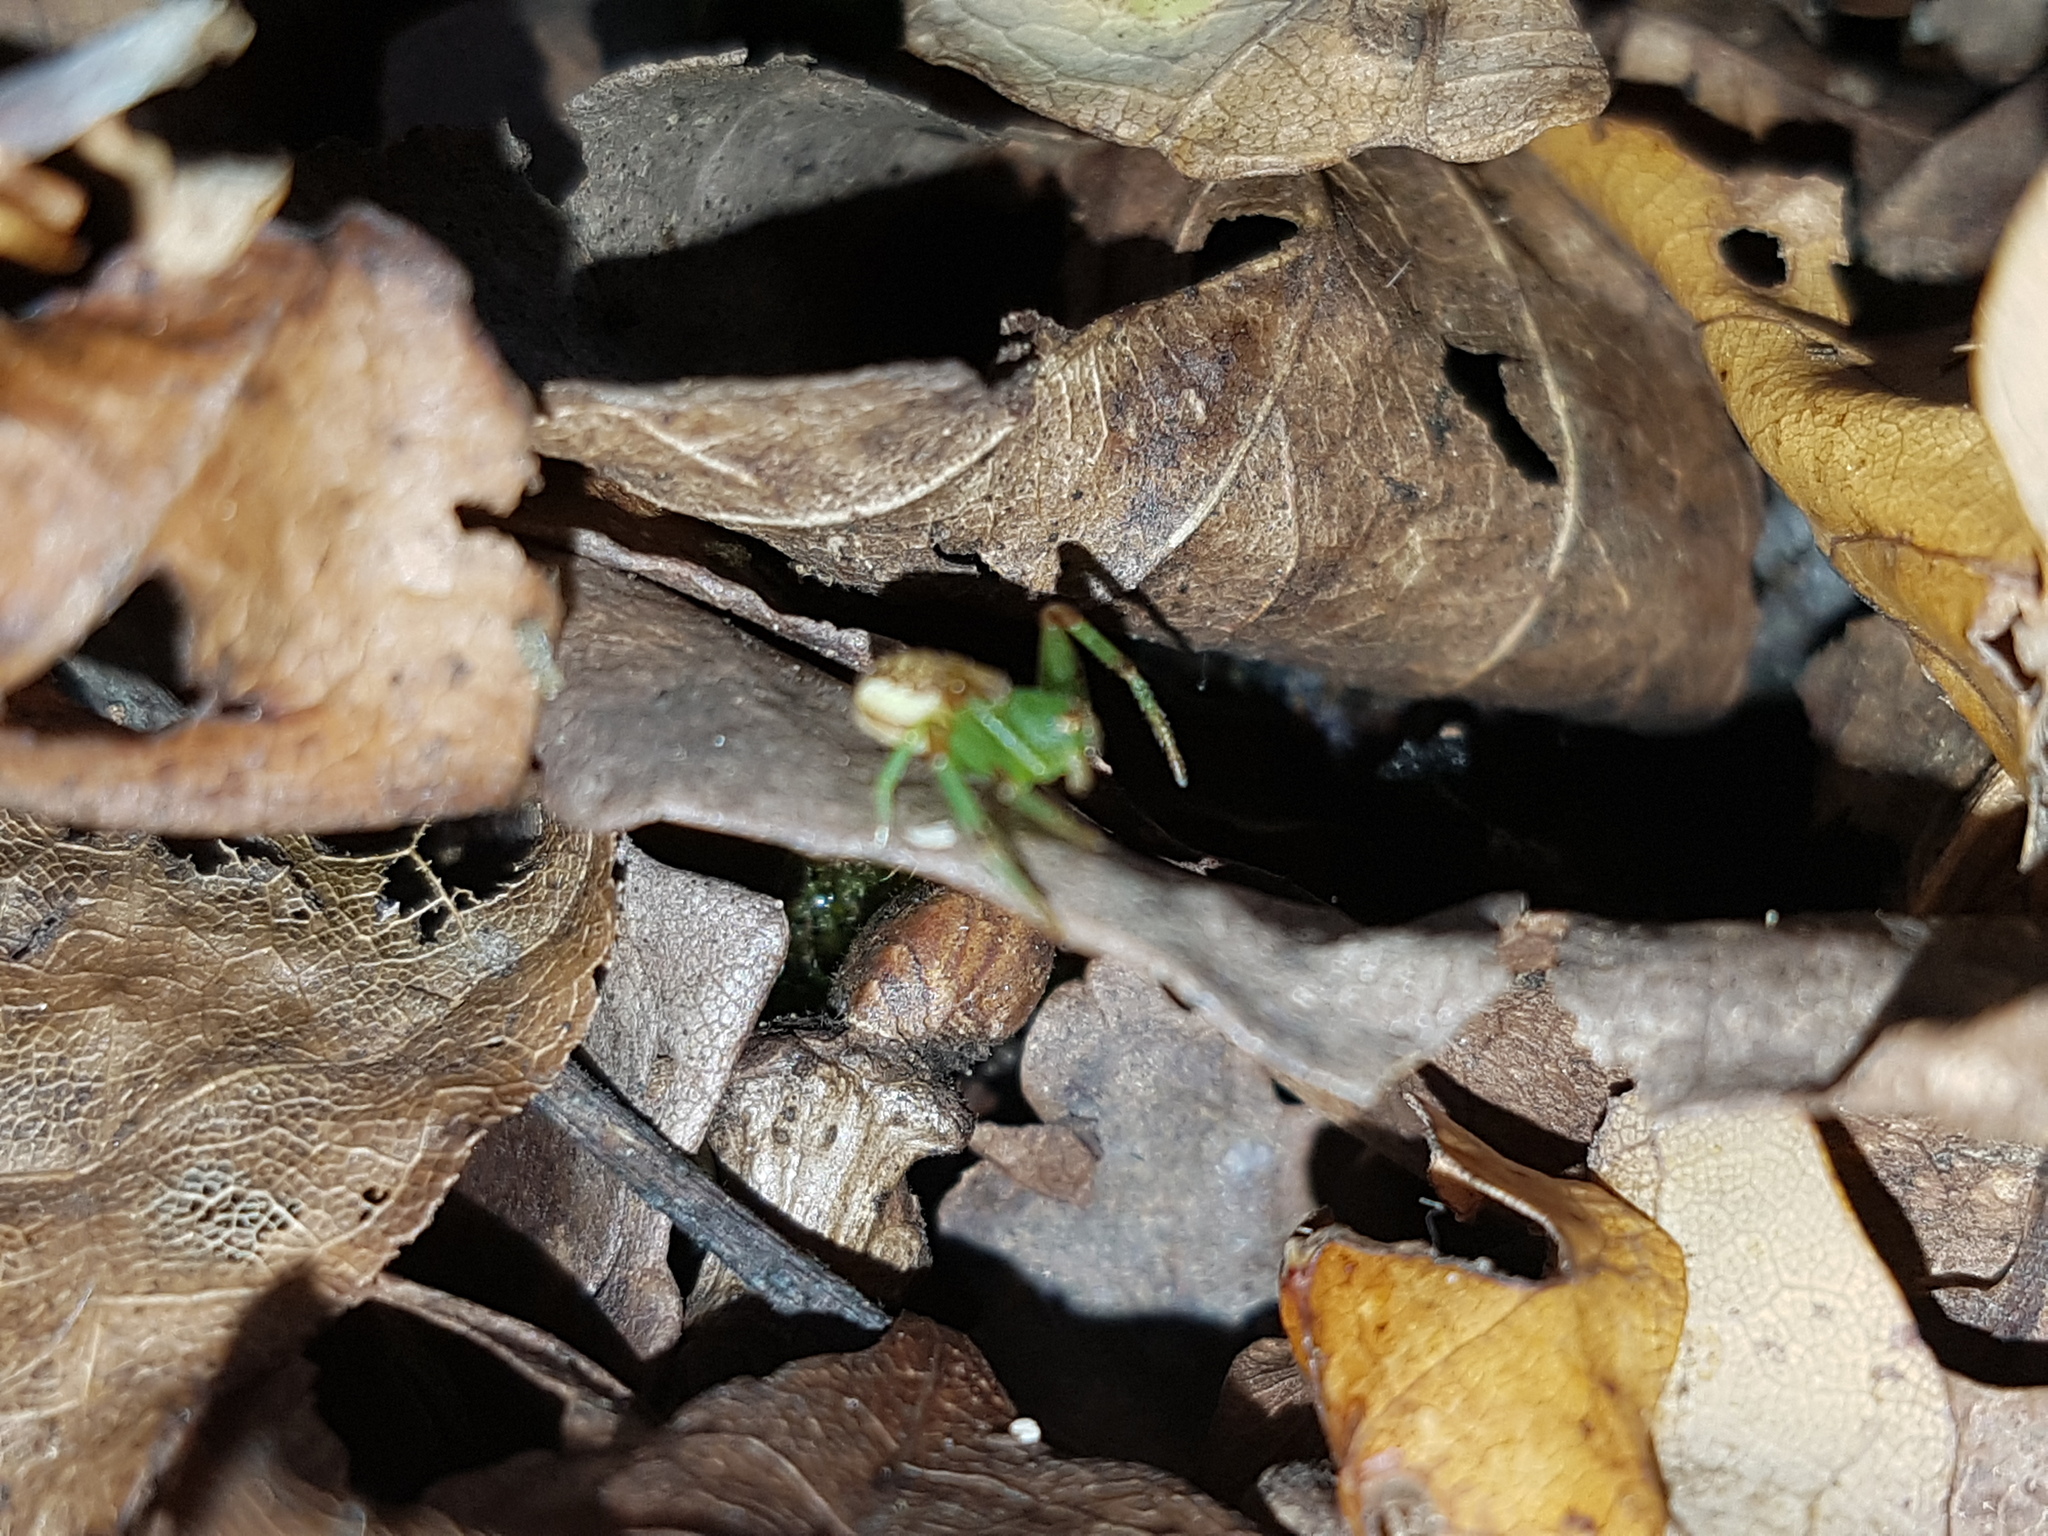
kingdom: Animalia
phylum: Arthropoda
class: Arachnida
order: Araneae
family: Thomisidae
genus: Diaea
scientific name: Diaea dorsata
